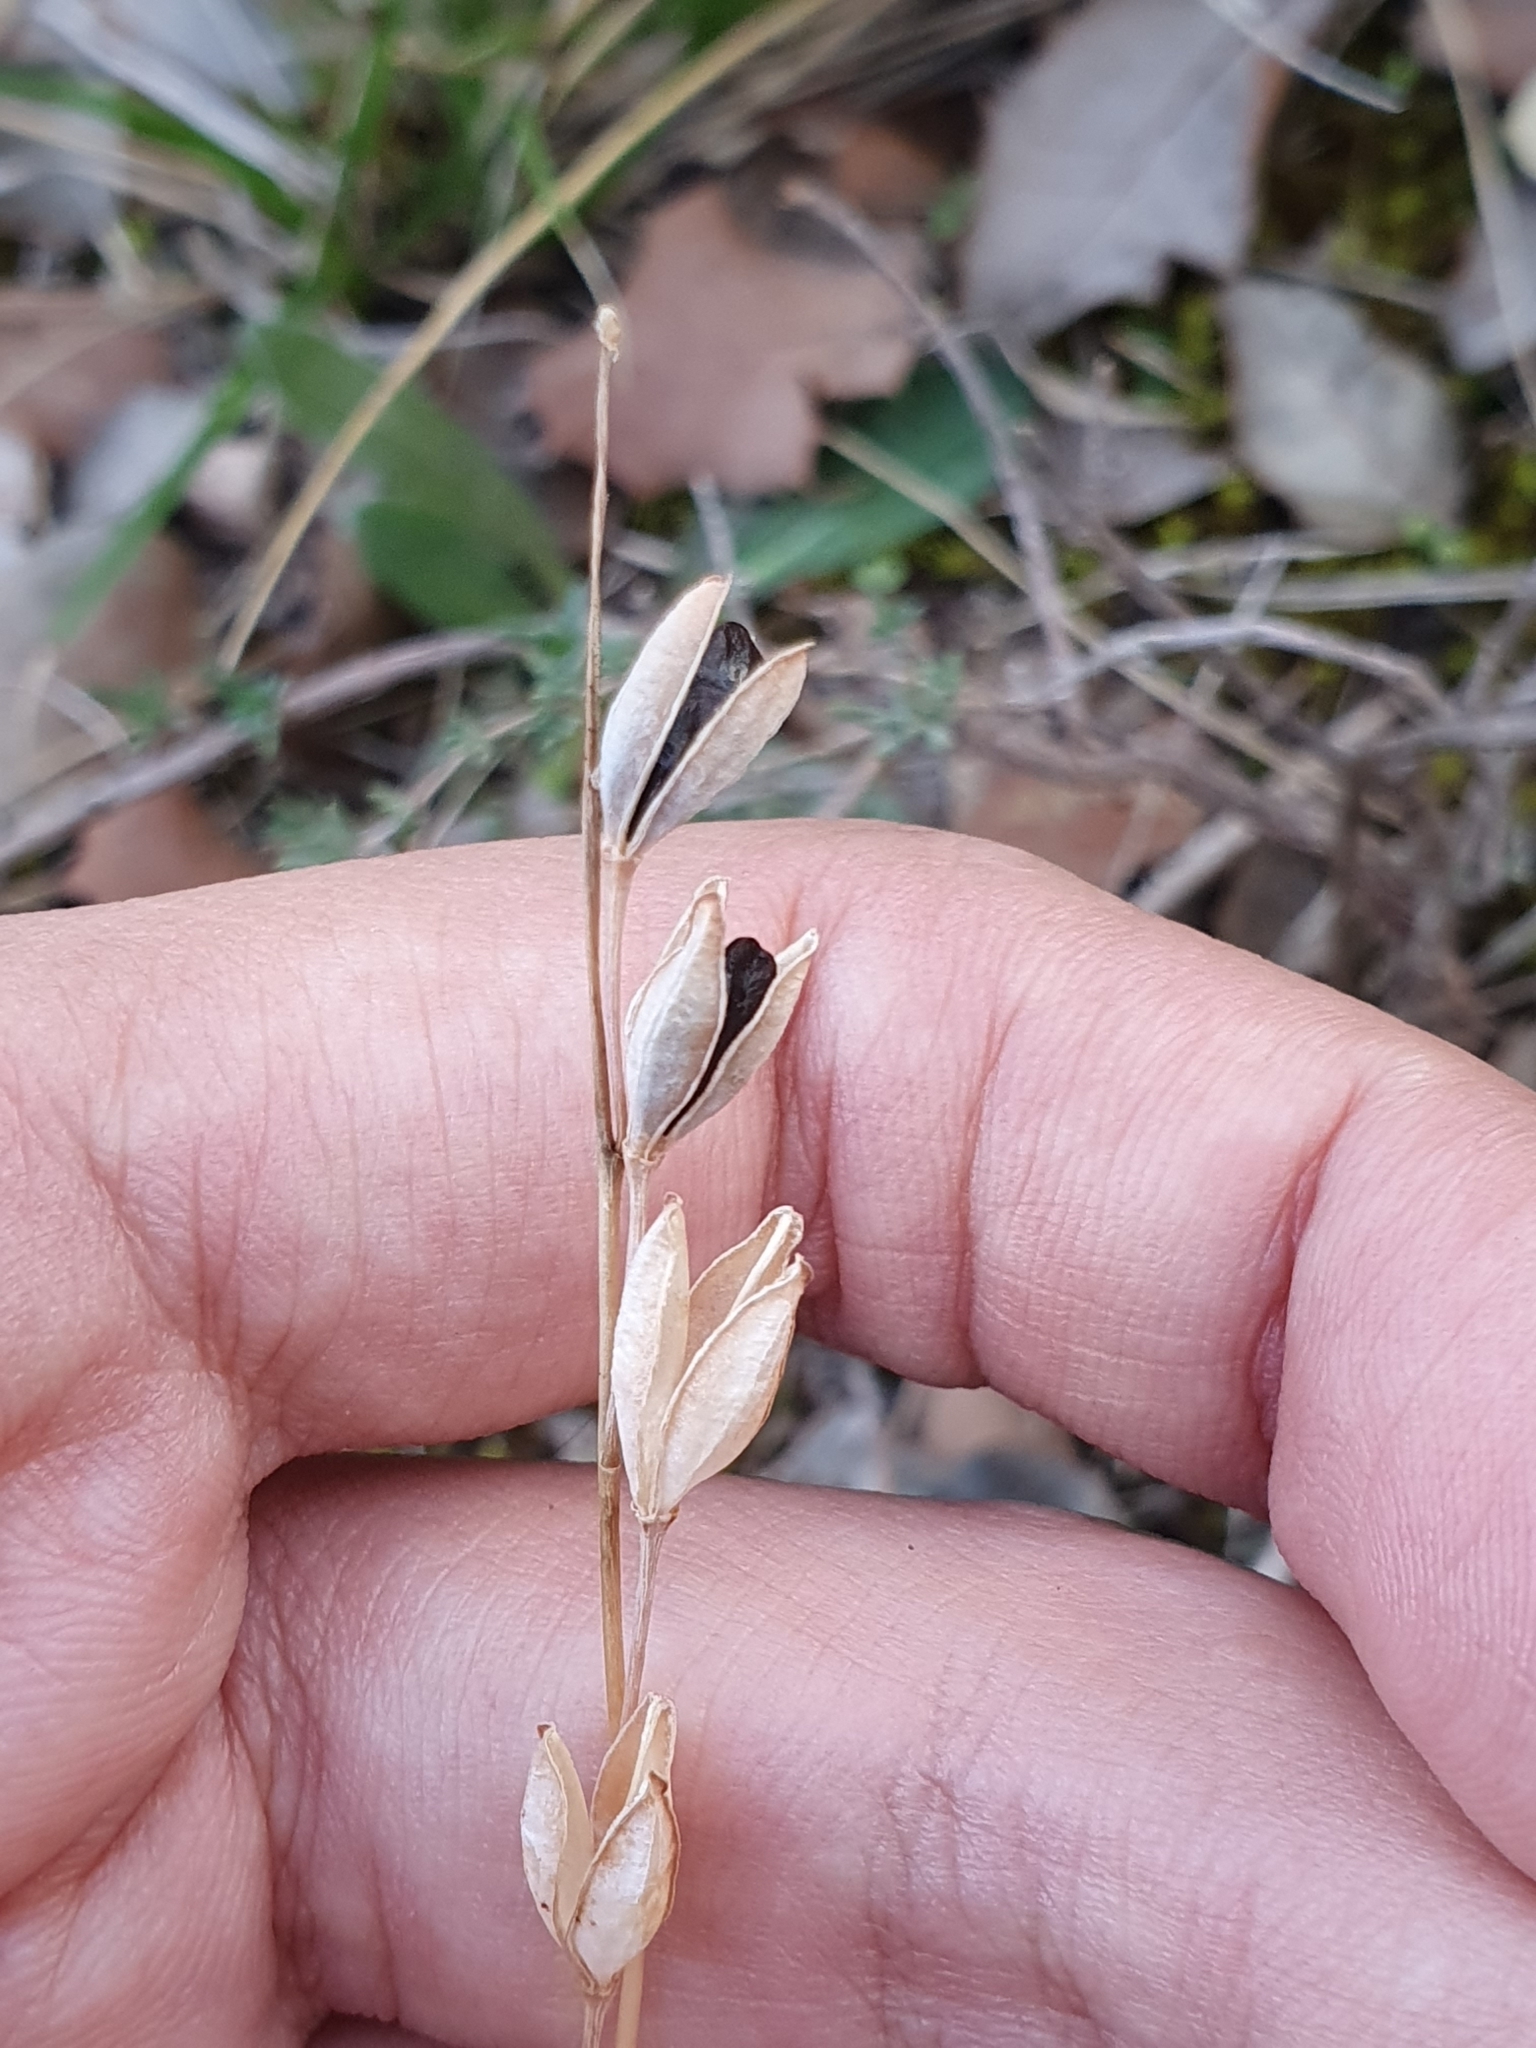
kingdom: Plantae
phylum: Tracheophyta
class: Liliopsida
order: Asparagales
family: Asparagaceae
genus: Drimia
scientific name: Drimia fugax
